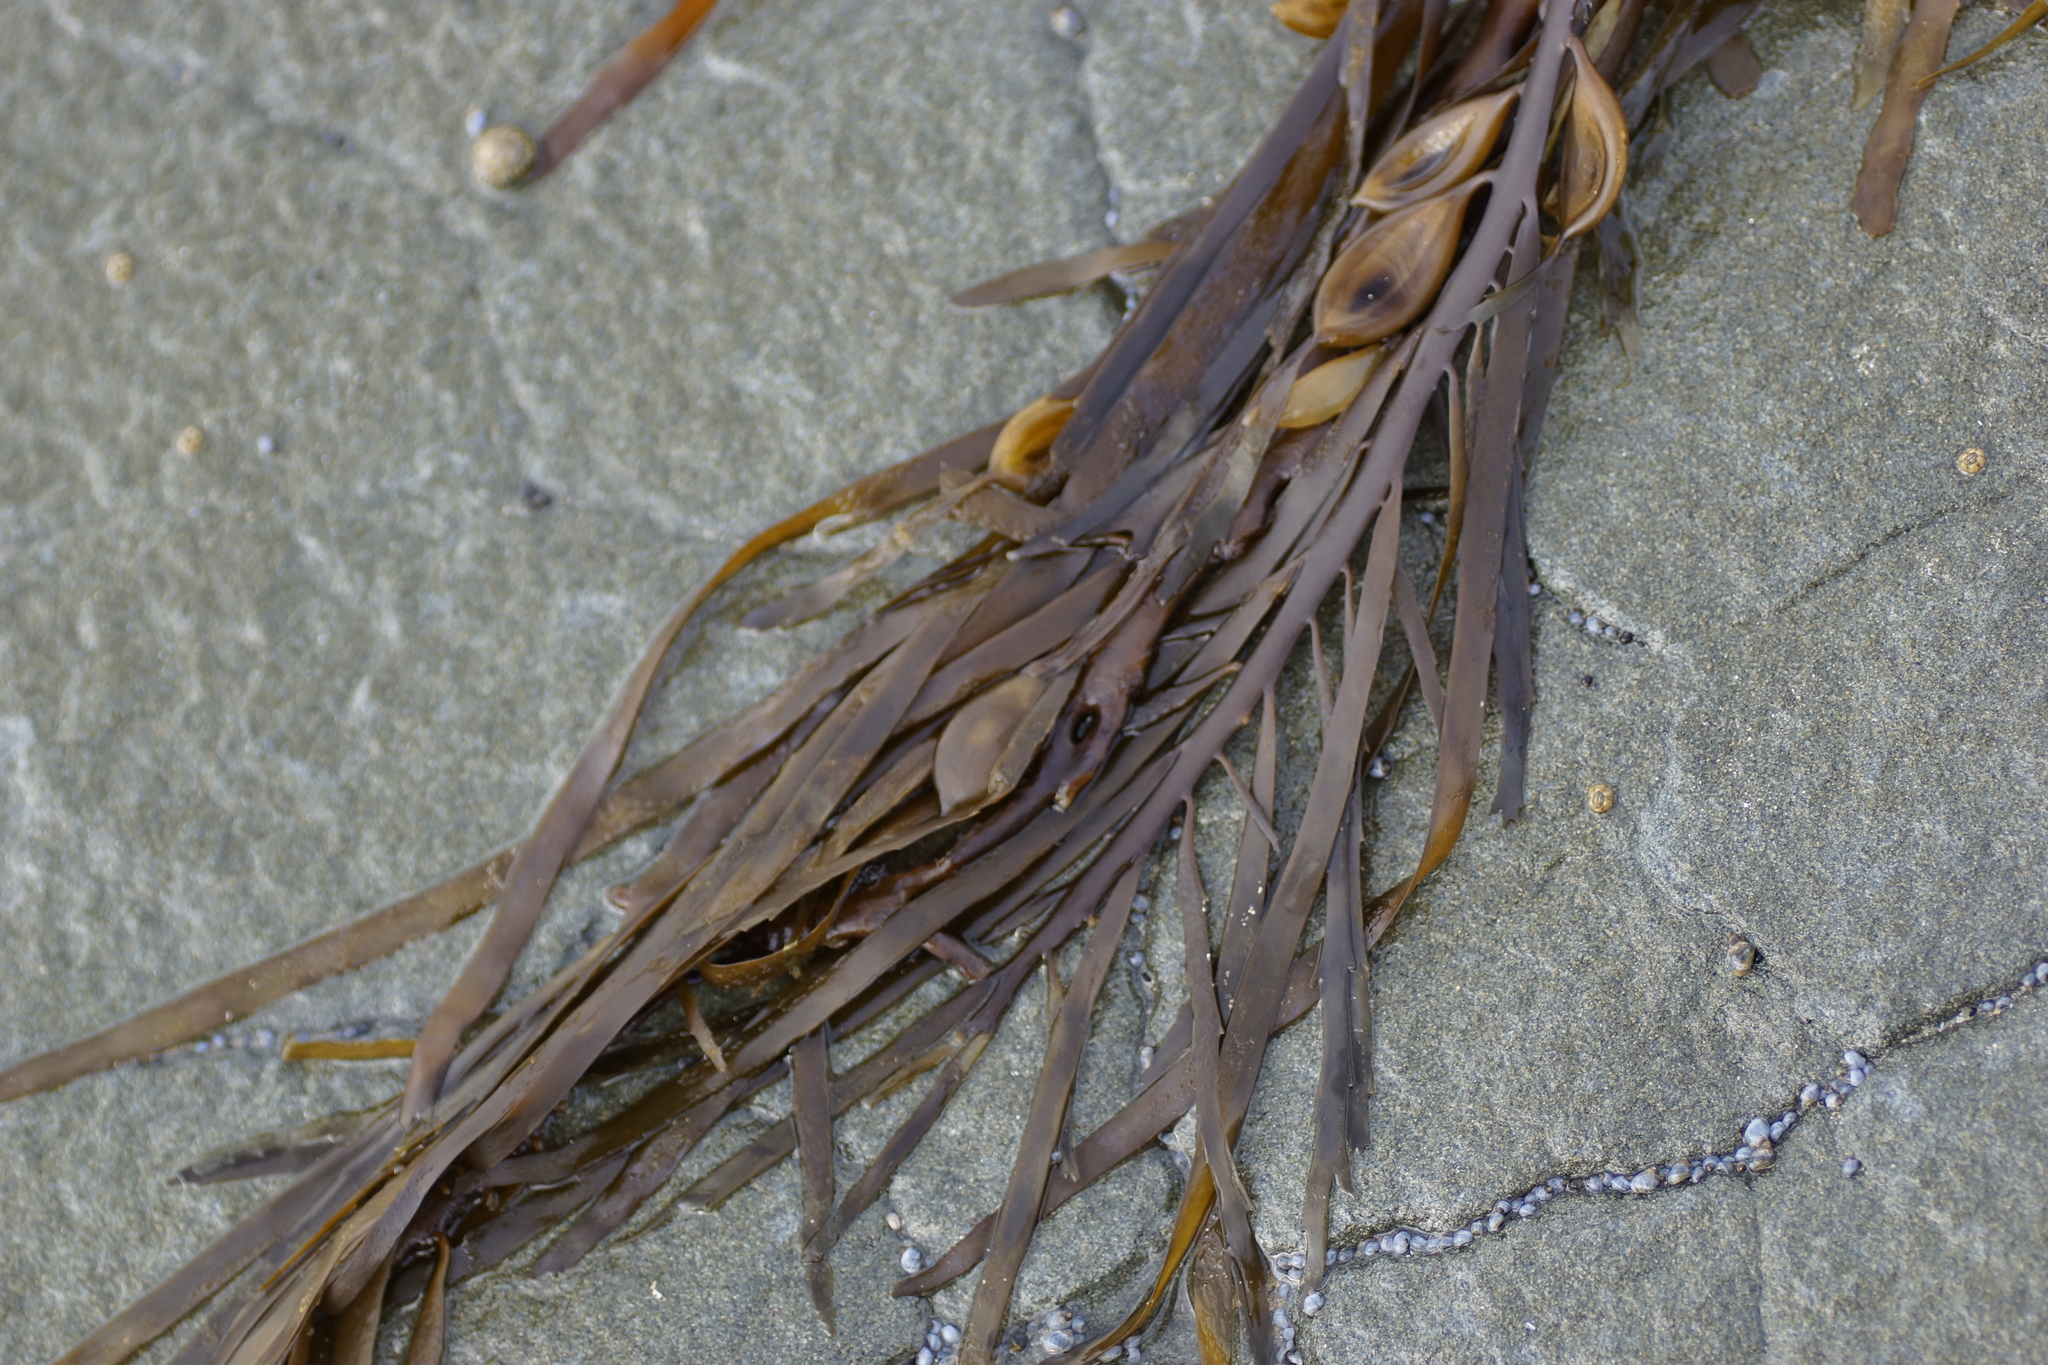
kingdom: Chromista
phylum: Ochrophyta
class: Phaeophyceae
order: Fucales
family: Seirococcaceae
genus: Phyllospora
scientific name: Phyllospora
